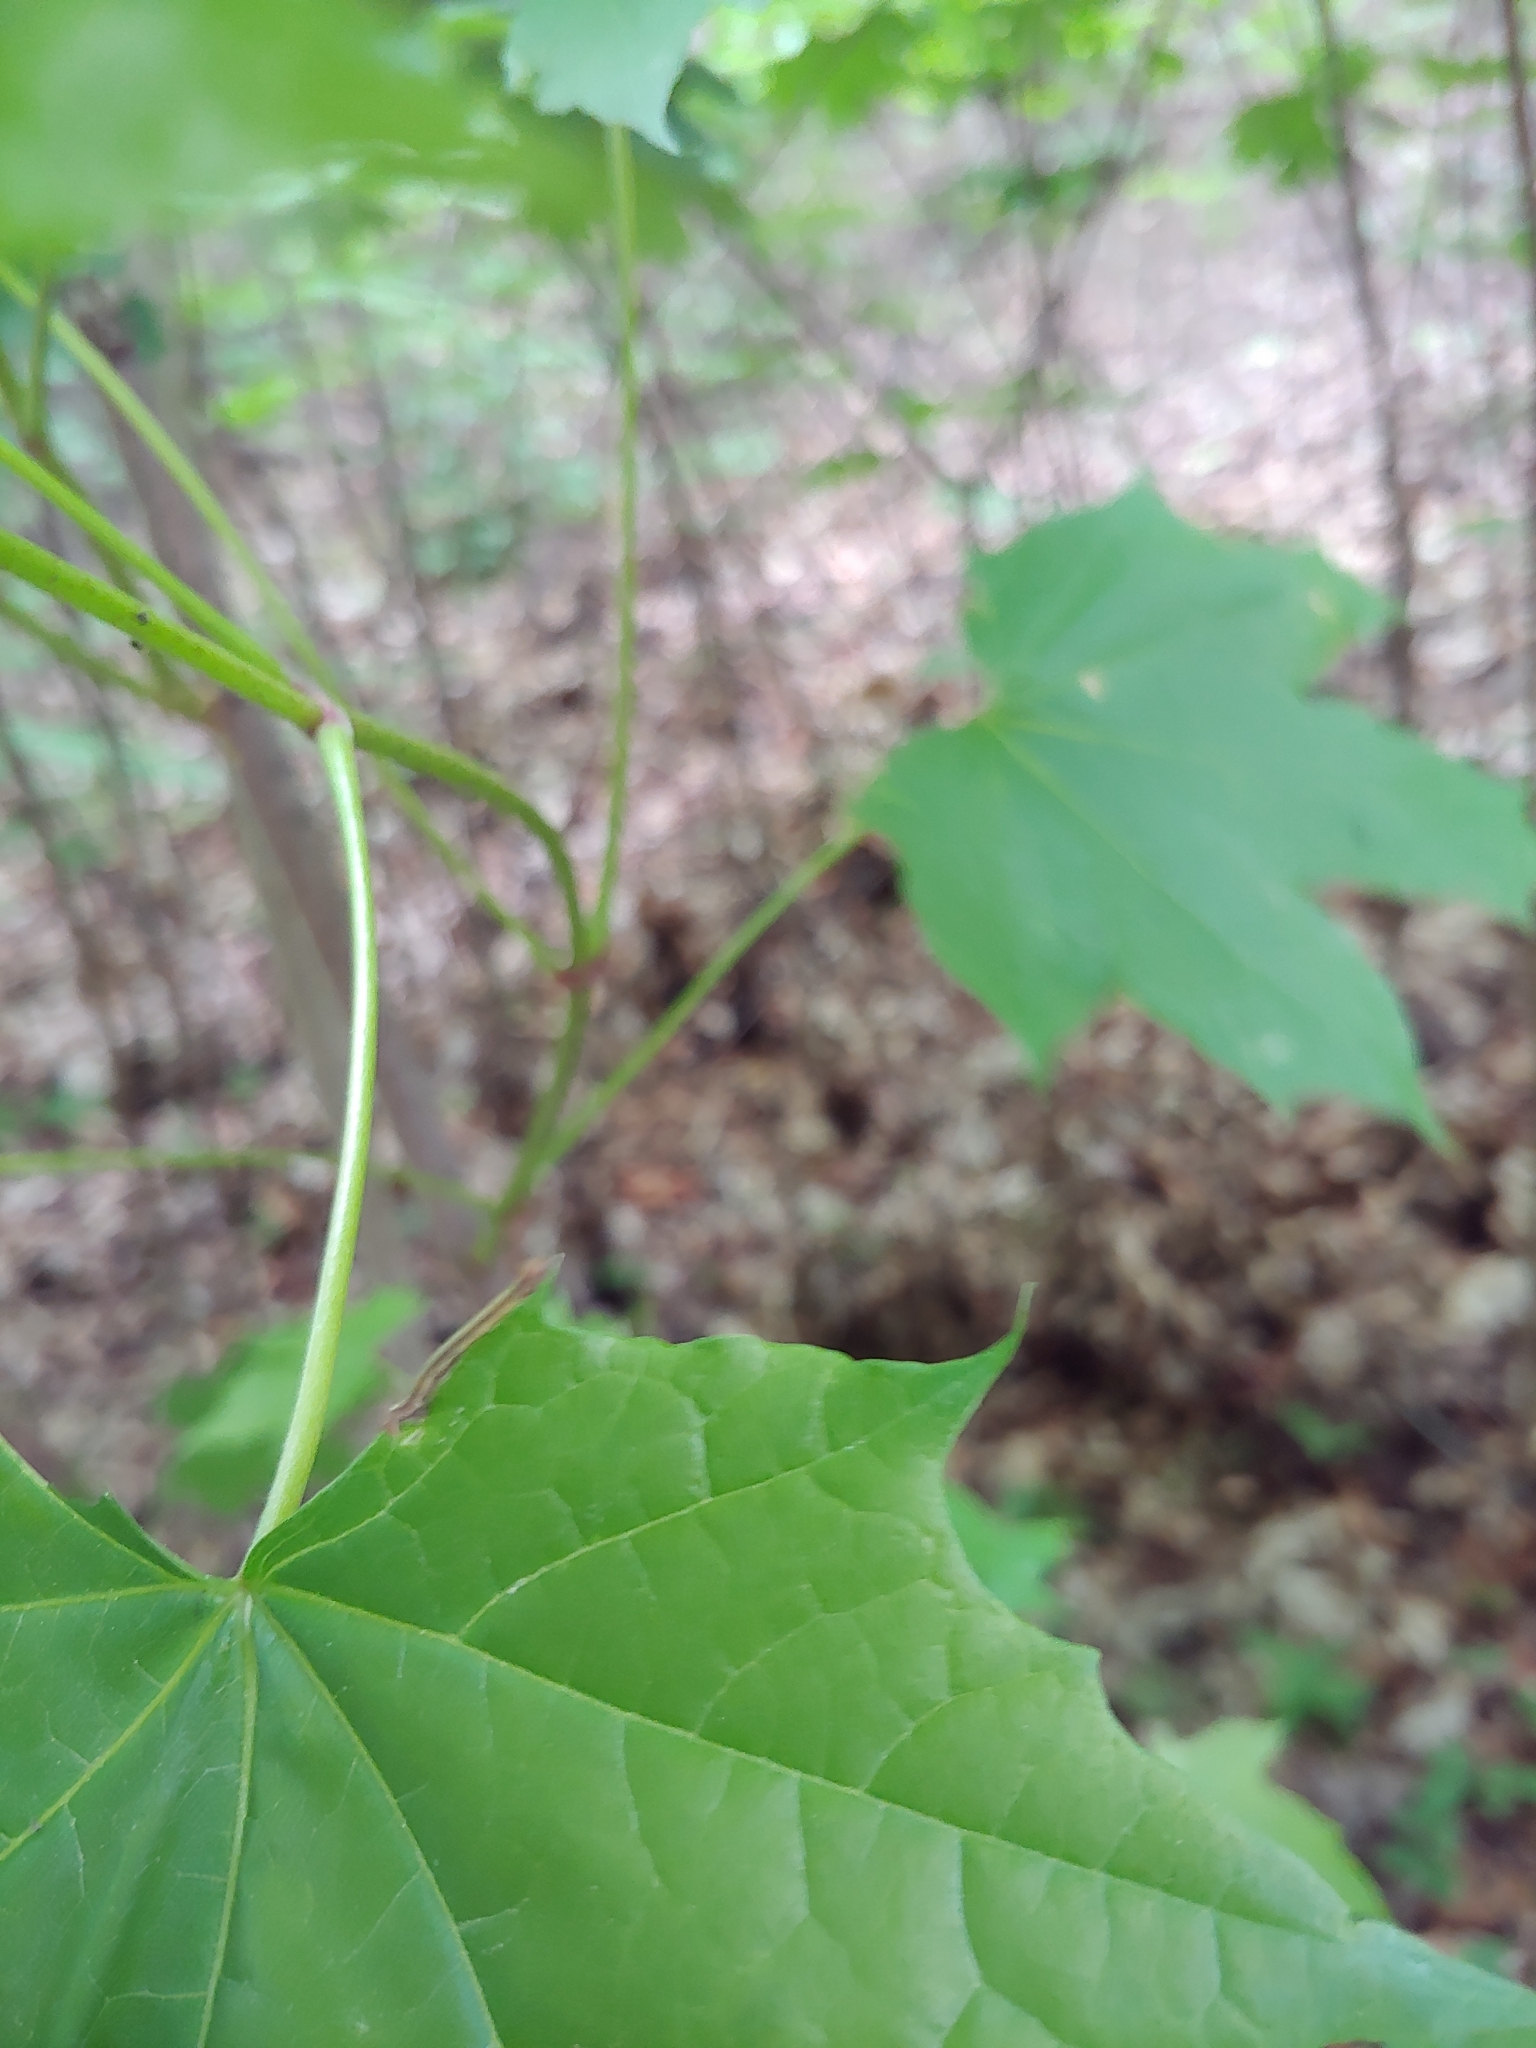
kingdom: Plantae
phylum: Tracheophyta
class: Magnoliopsida
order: Sapindales
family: Sapindaceae
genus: Acer
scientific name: Acer platanoides
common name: Norway maple
